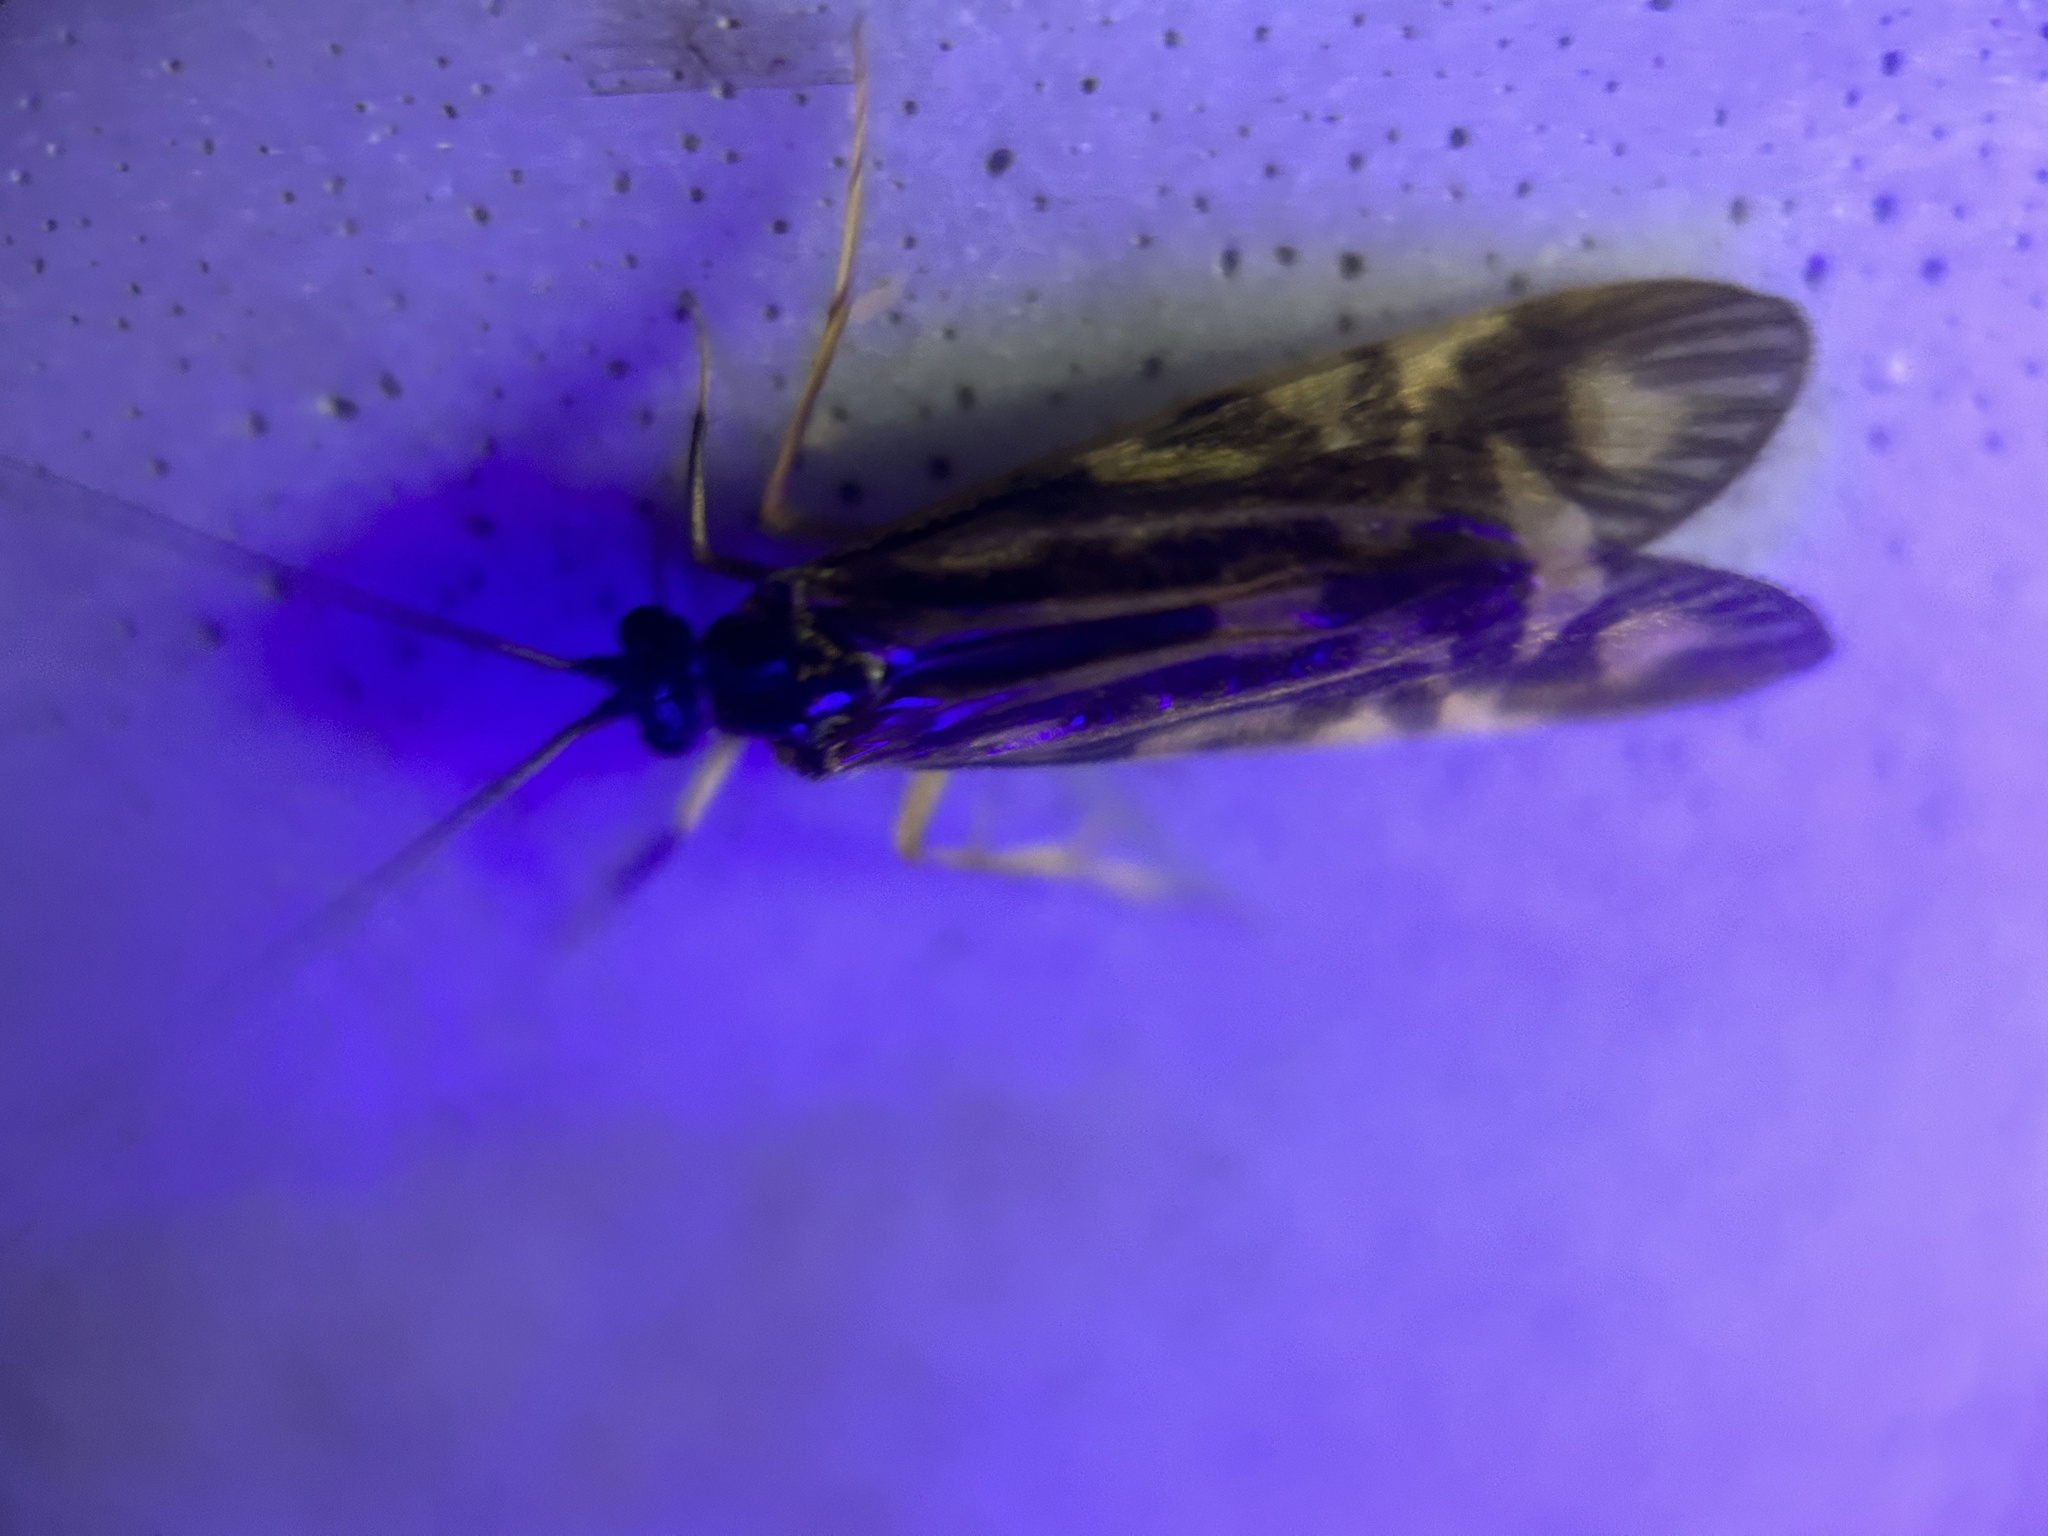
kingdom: Animalia
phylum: Arthropoda
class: Insecta
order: Trichoptera
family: Hydropsychidae
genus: Macrostemum
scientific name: Macrostemum zebratum
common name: Zebra caddisfly
